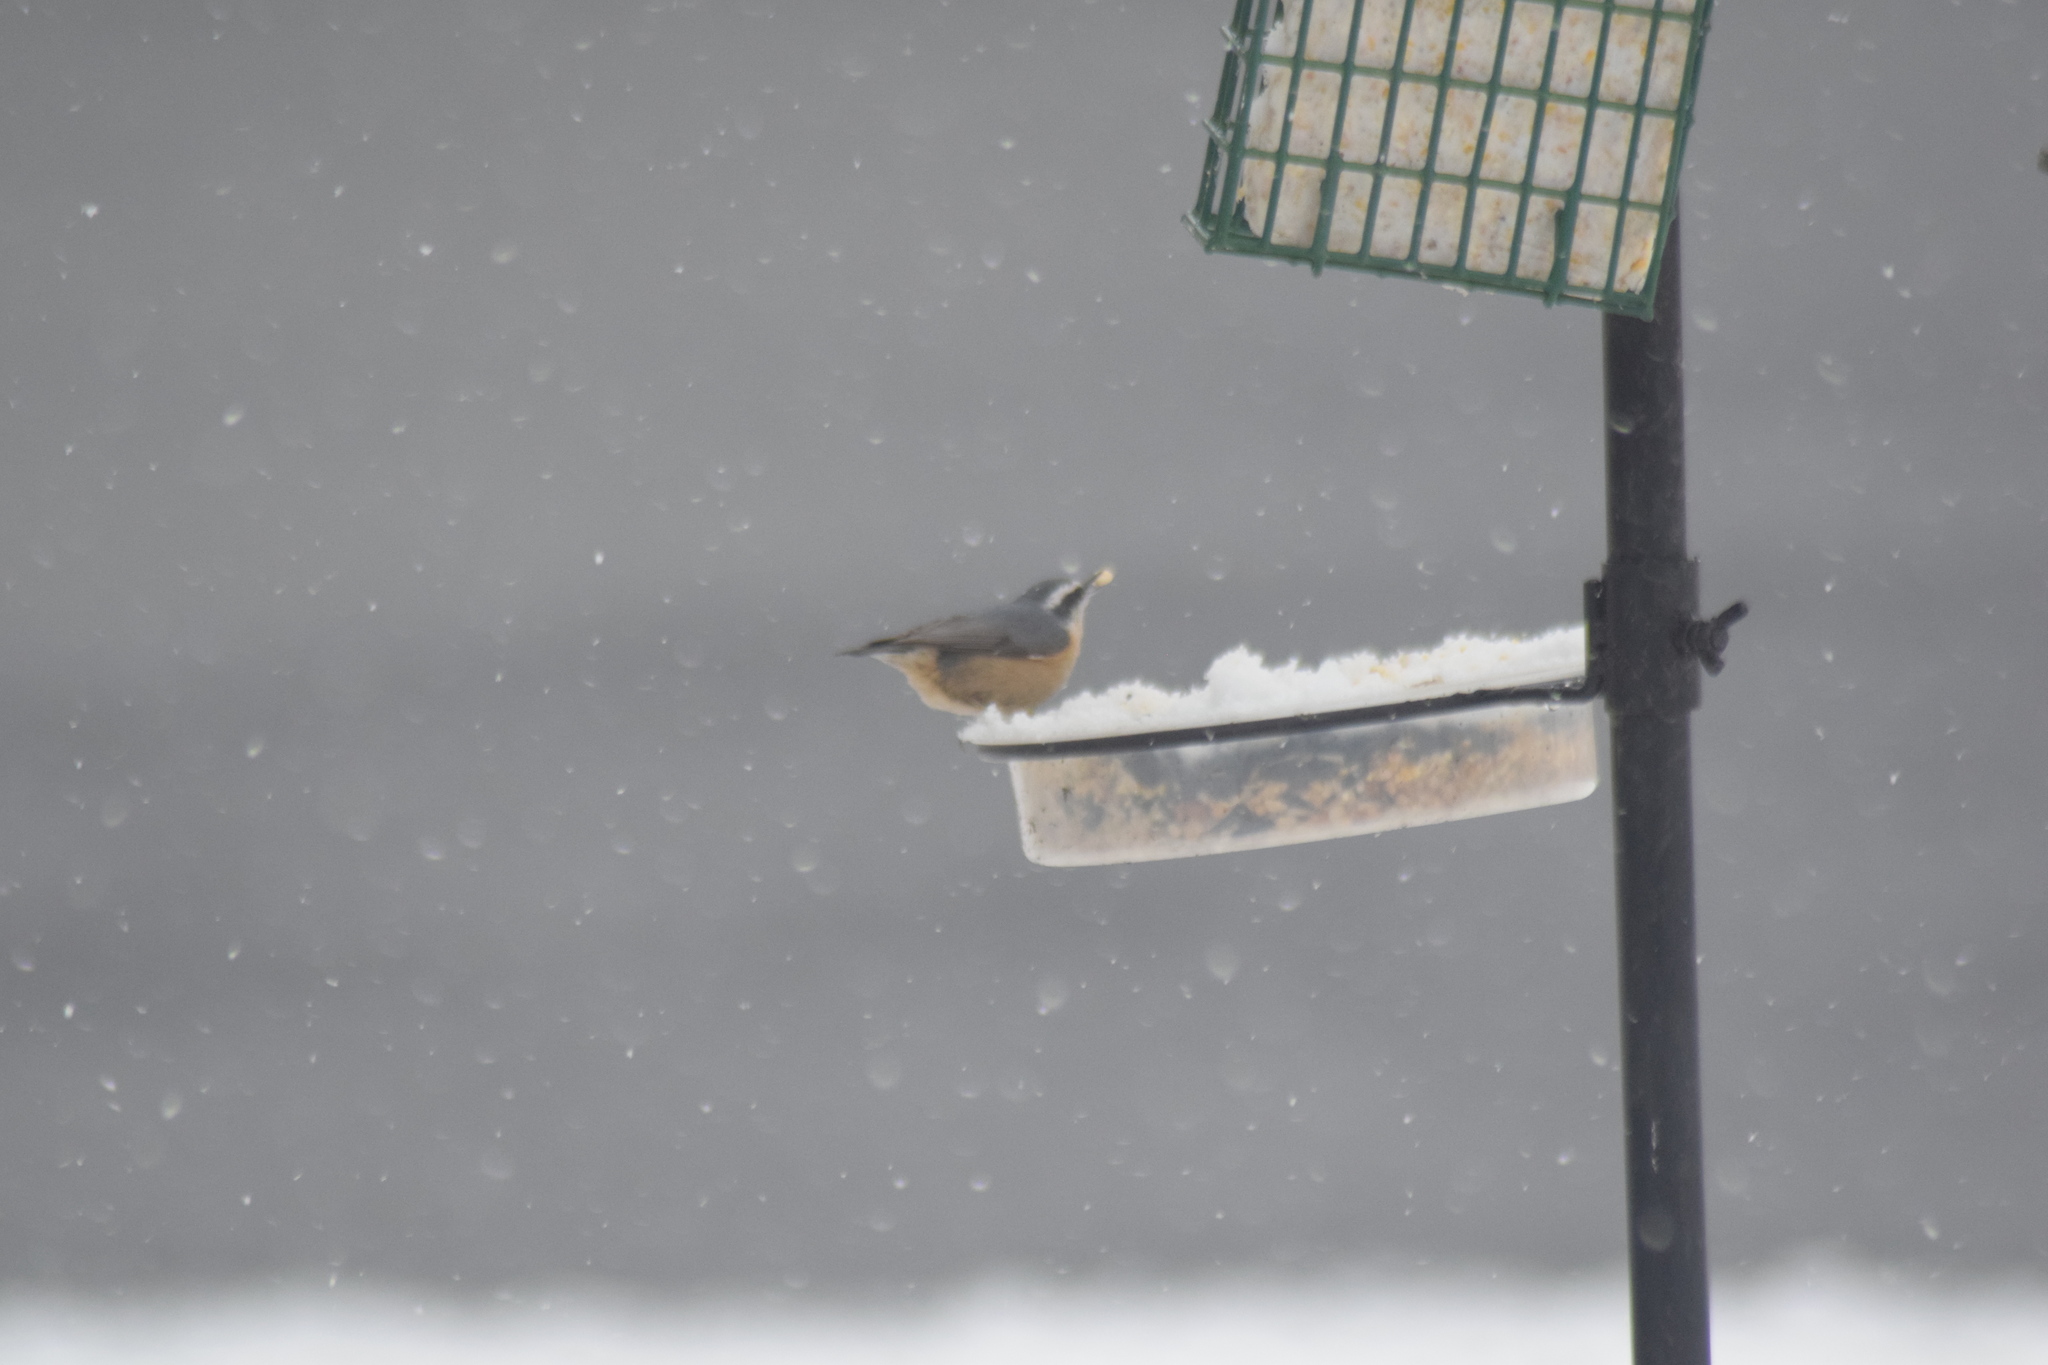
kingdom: Animalia
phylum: Chordata
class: Aves
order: Passeriformes
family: Sittidae
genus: Sitta
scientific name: Sitta canadensis
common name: Red-breasted nuthatch
